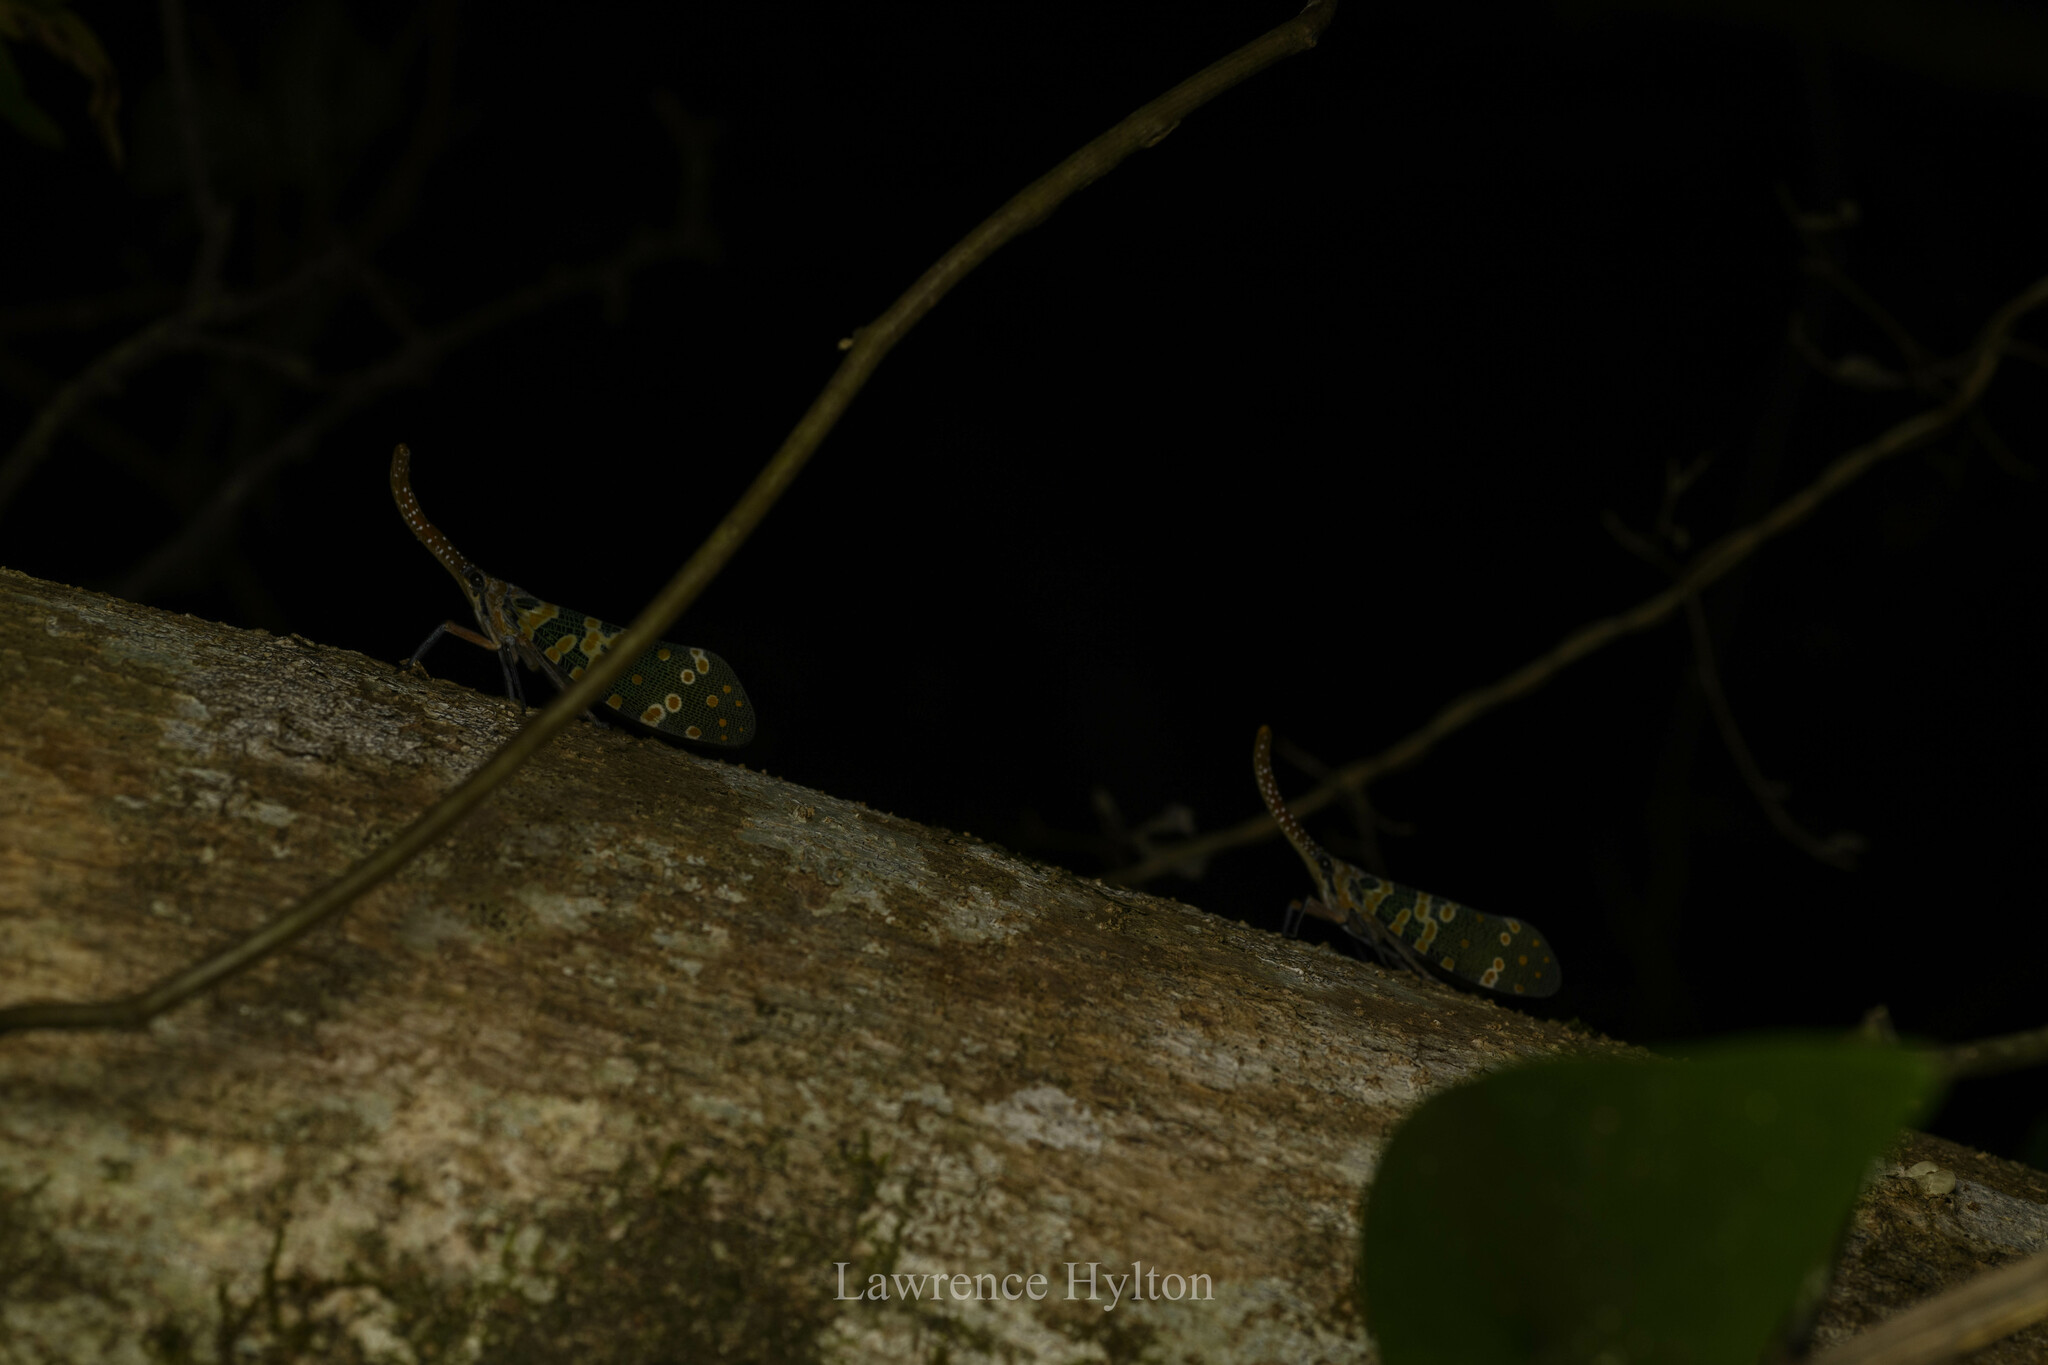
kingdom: Animalia
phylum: Arthropoda
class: Insecta
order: Hemiptera
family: Fulgoridae
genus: Pyrops
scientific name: Pyrops candelaria
